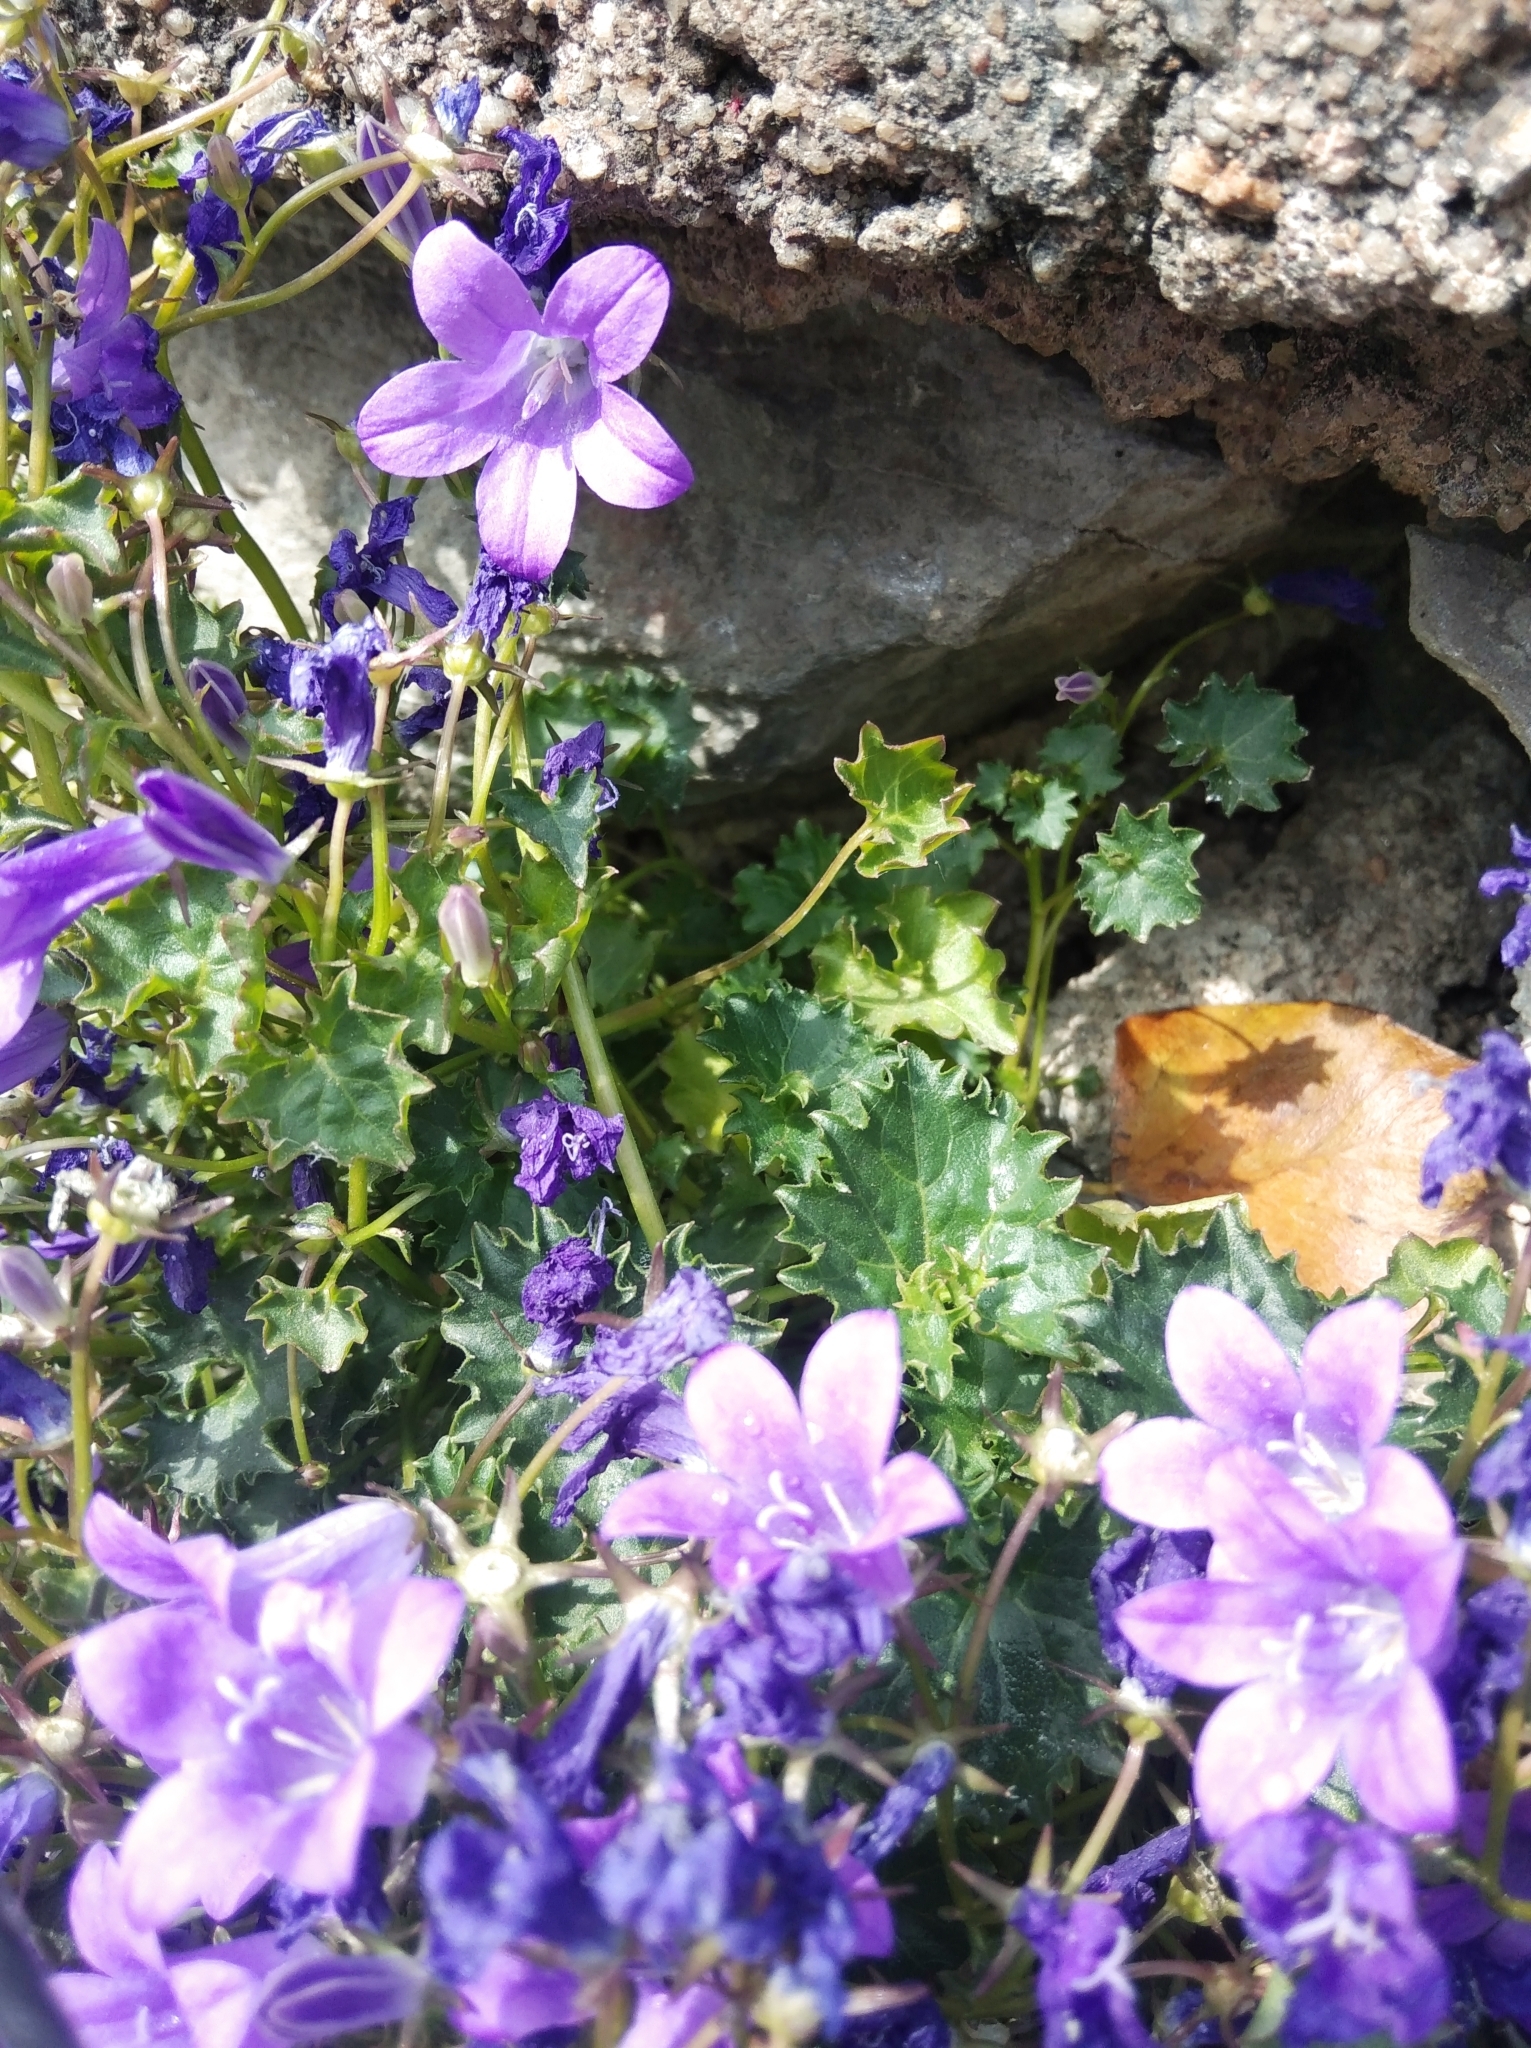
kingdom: Plantae
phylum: Tracheophyta
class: Magnoliopsida
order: Asterales
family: Campanulaceae
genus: Campanula
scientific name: Campanula poscharskyana
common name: Trailing bellflower
